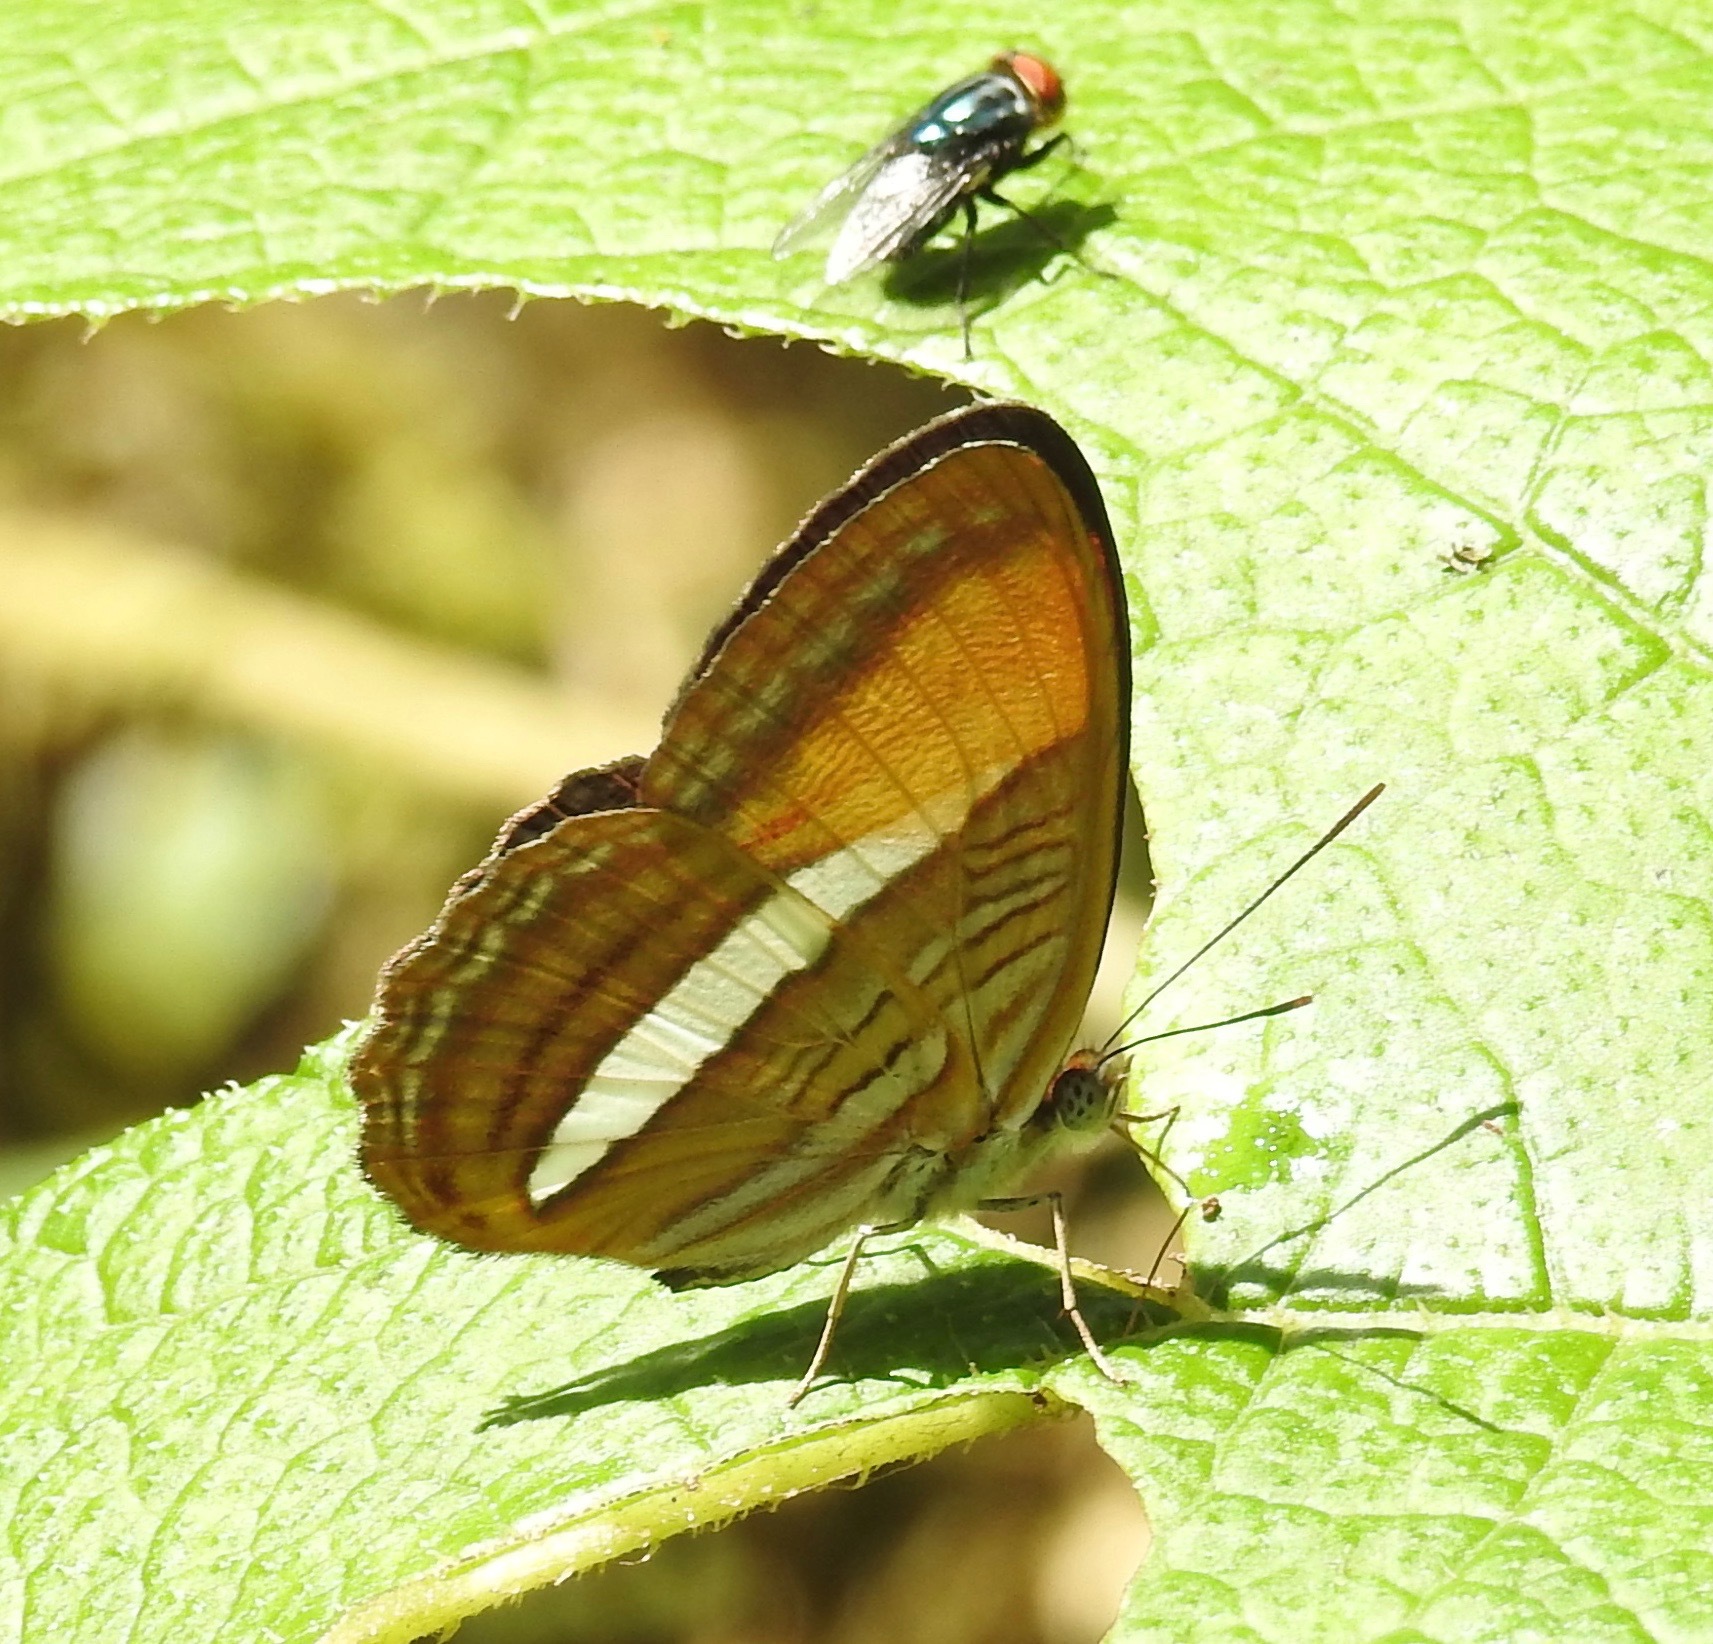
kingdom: Animalia
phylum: Arthropoda
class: Insecta
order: Lepidoptera
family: Nymphalidae
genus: Limenitis
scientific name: Limenitis cytherea
